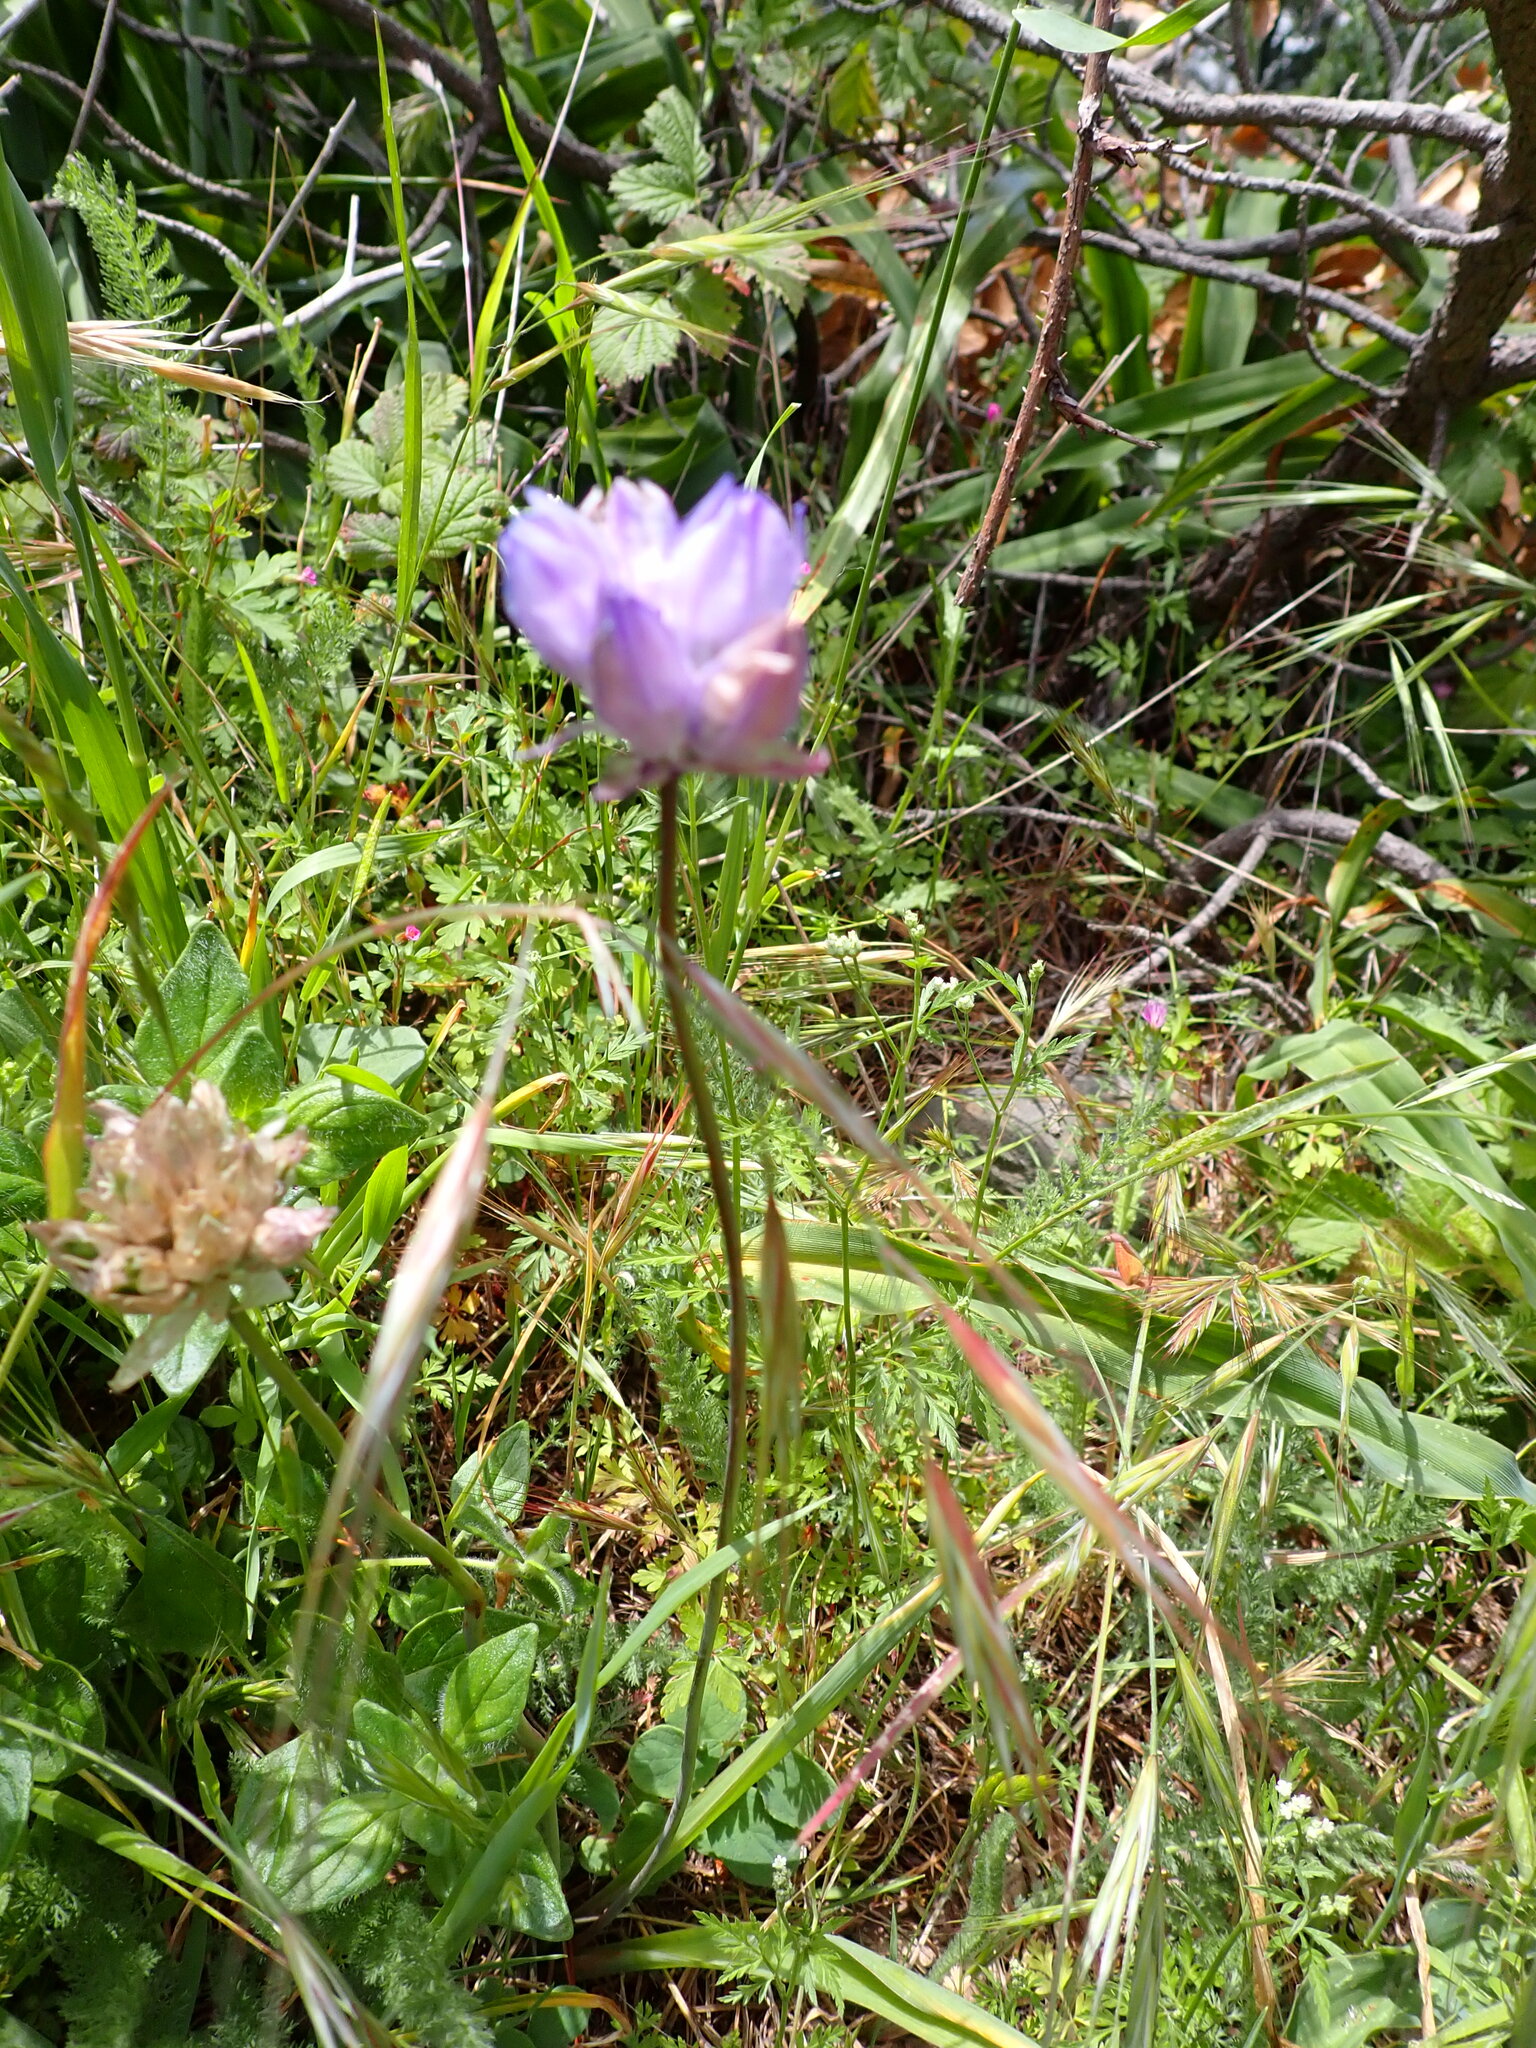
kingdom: Plantae
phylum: Tracheophyta
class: Liliopsida
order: Asparagales
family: Asparagaceae
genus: Dipterostemon
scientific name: Dipterostemon capitatus
